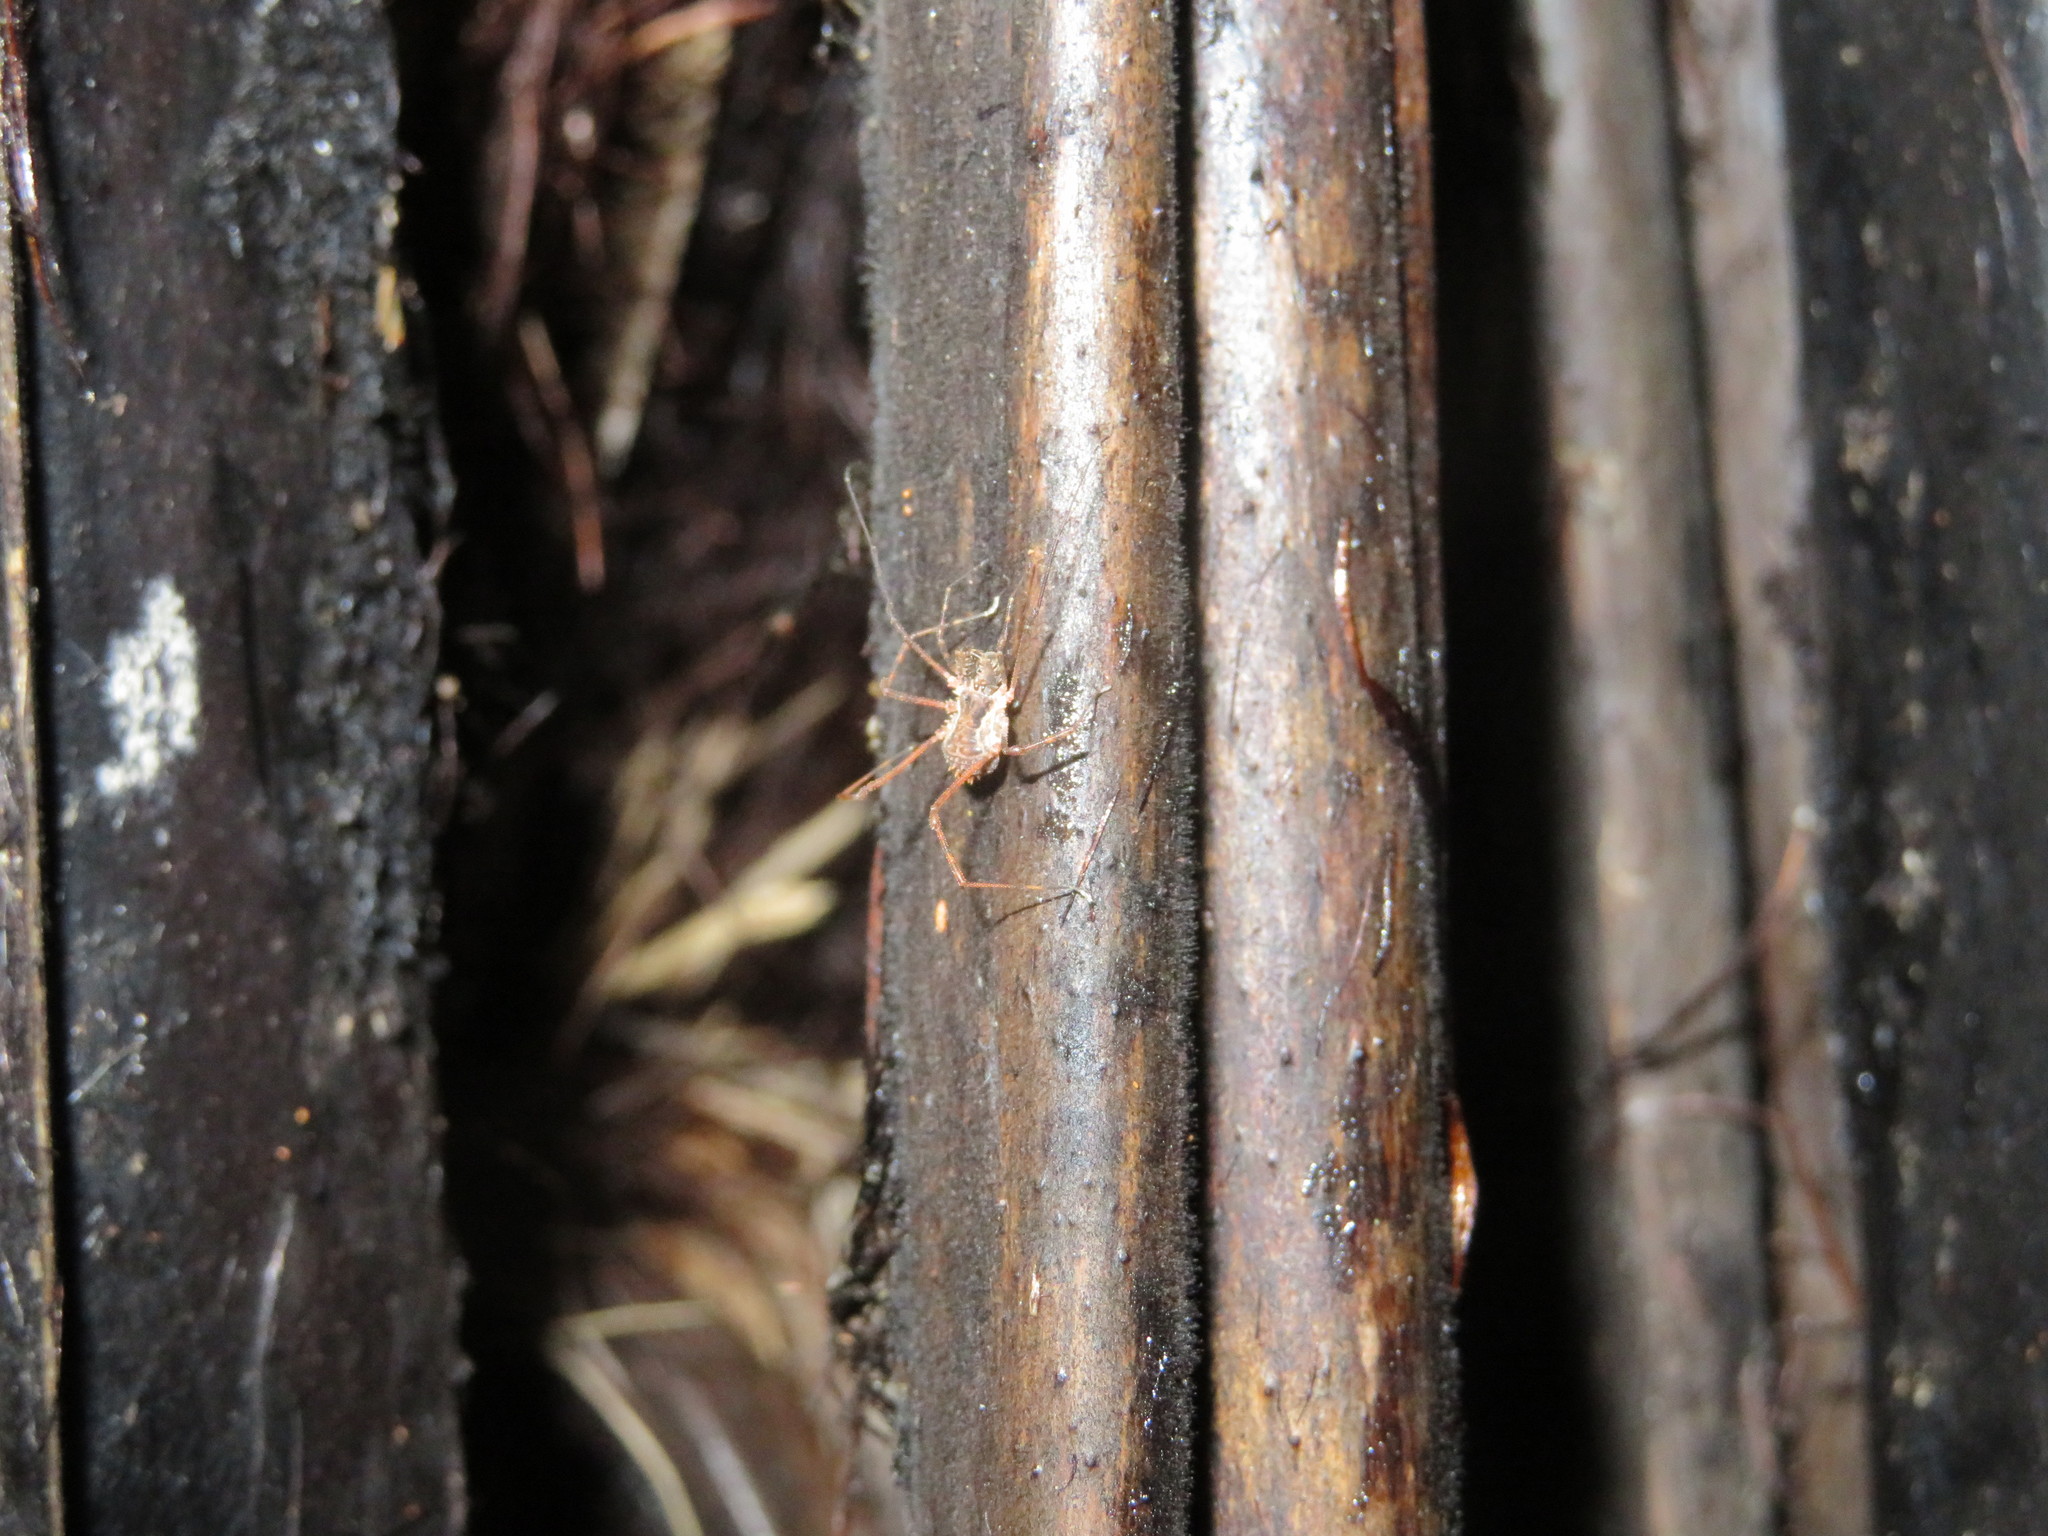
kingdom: Animalia
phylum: Arthropoda
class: Arachnida
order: Opiliones
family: Triaenonychidae
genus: Algidia
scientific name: Algidia chiltoni
